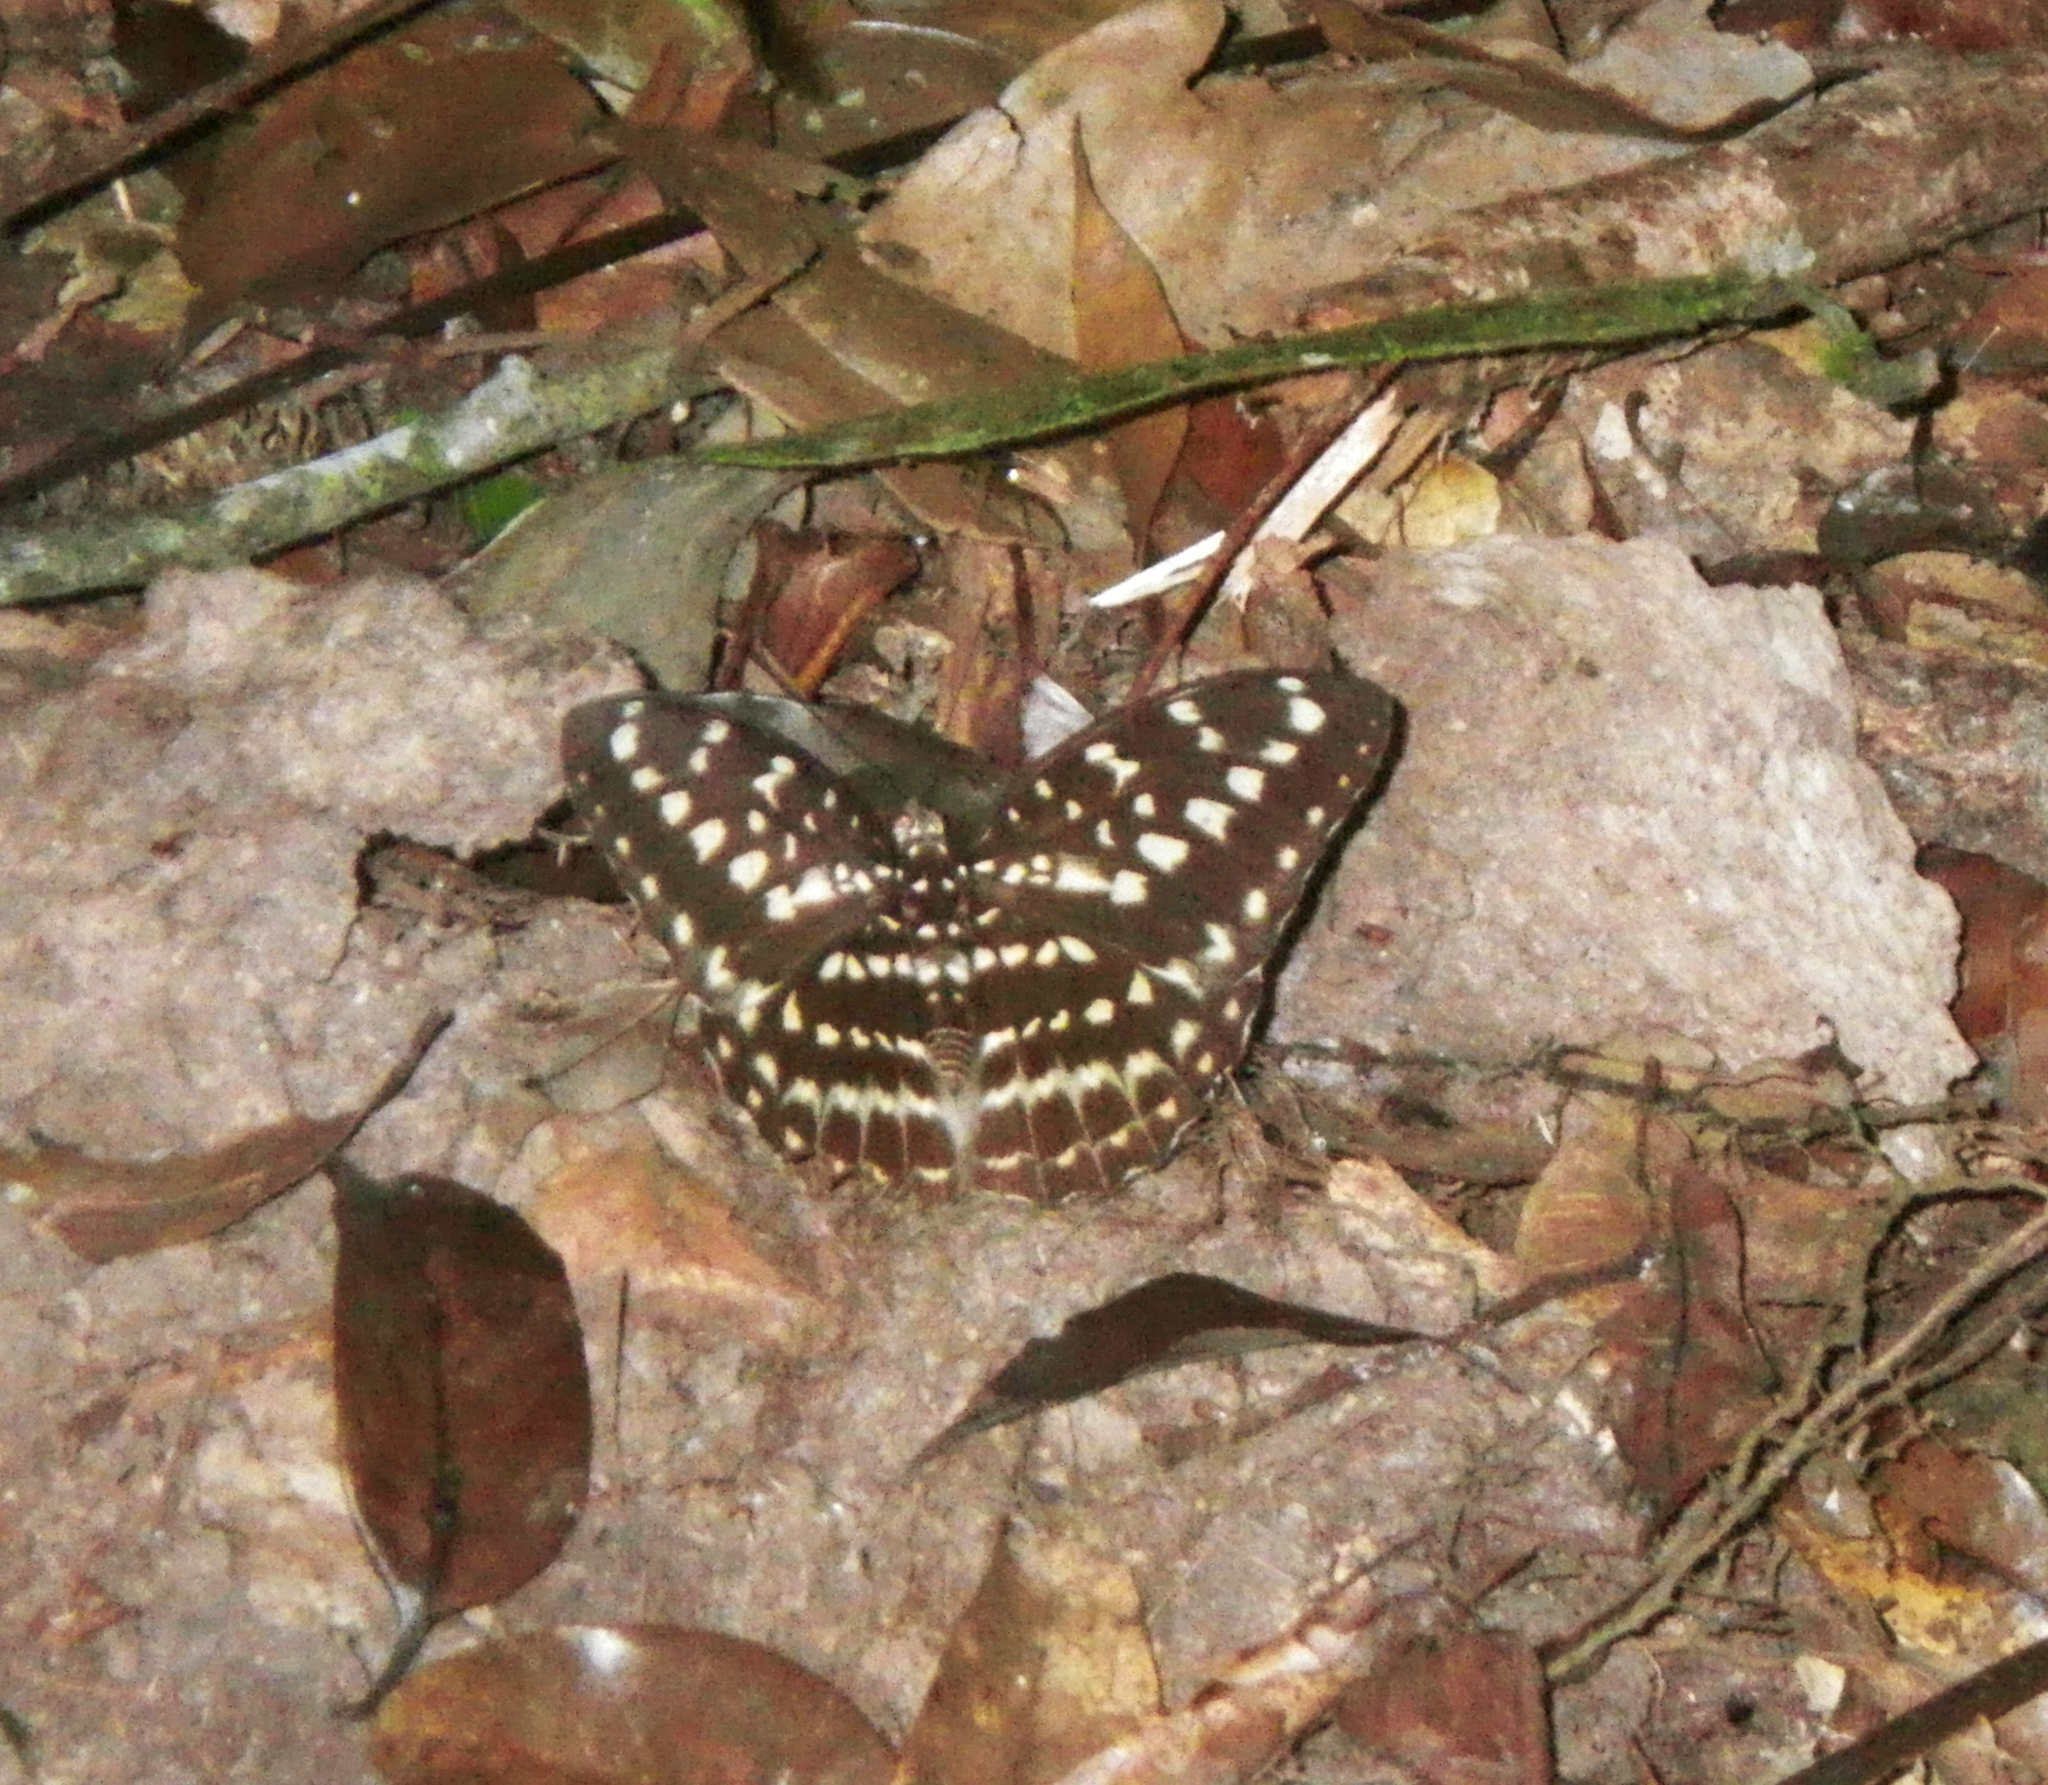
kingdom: Animalia
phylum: Arthropoda
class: Insecta
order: Lepidoptera
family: Nymphalidae
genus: Lexias
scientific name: Lexias pardalis
